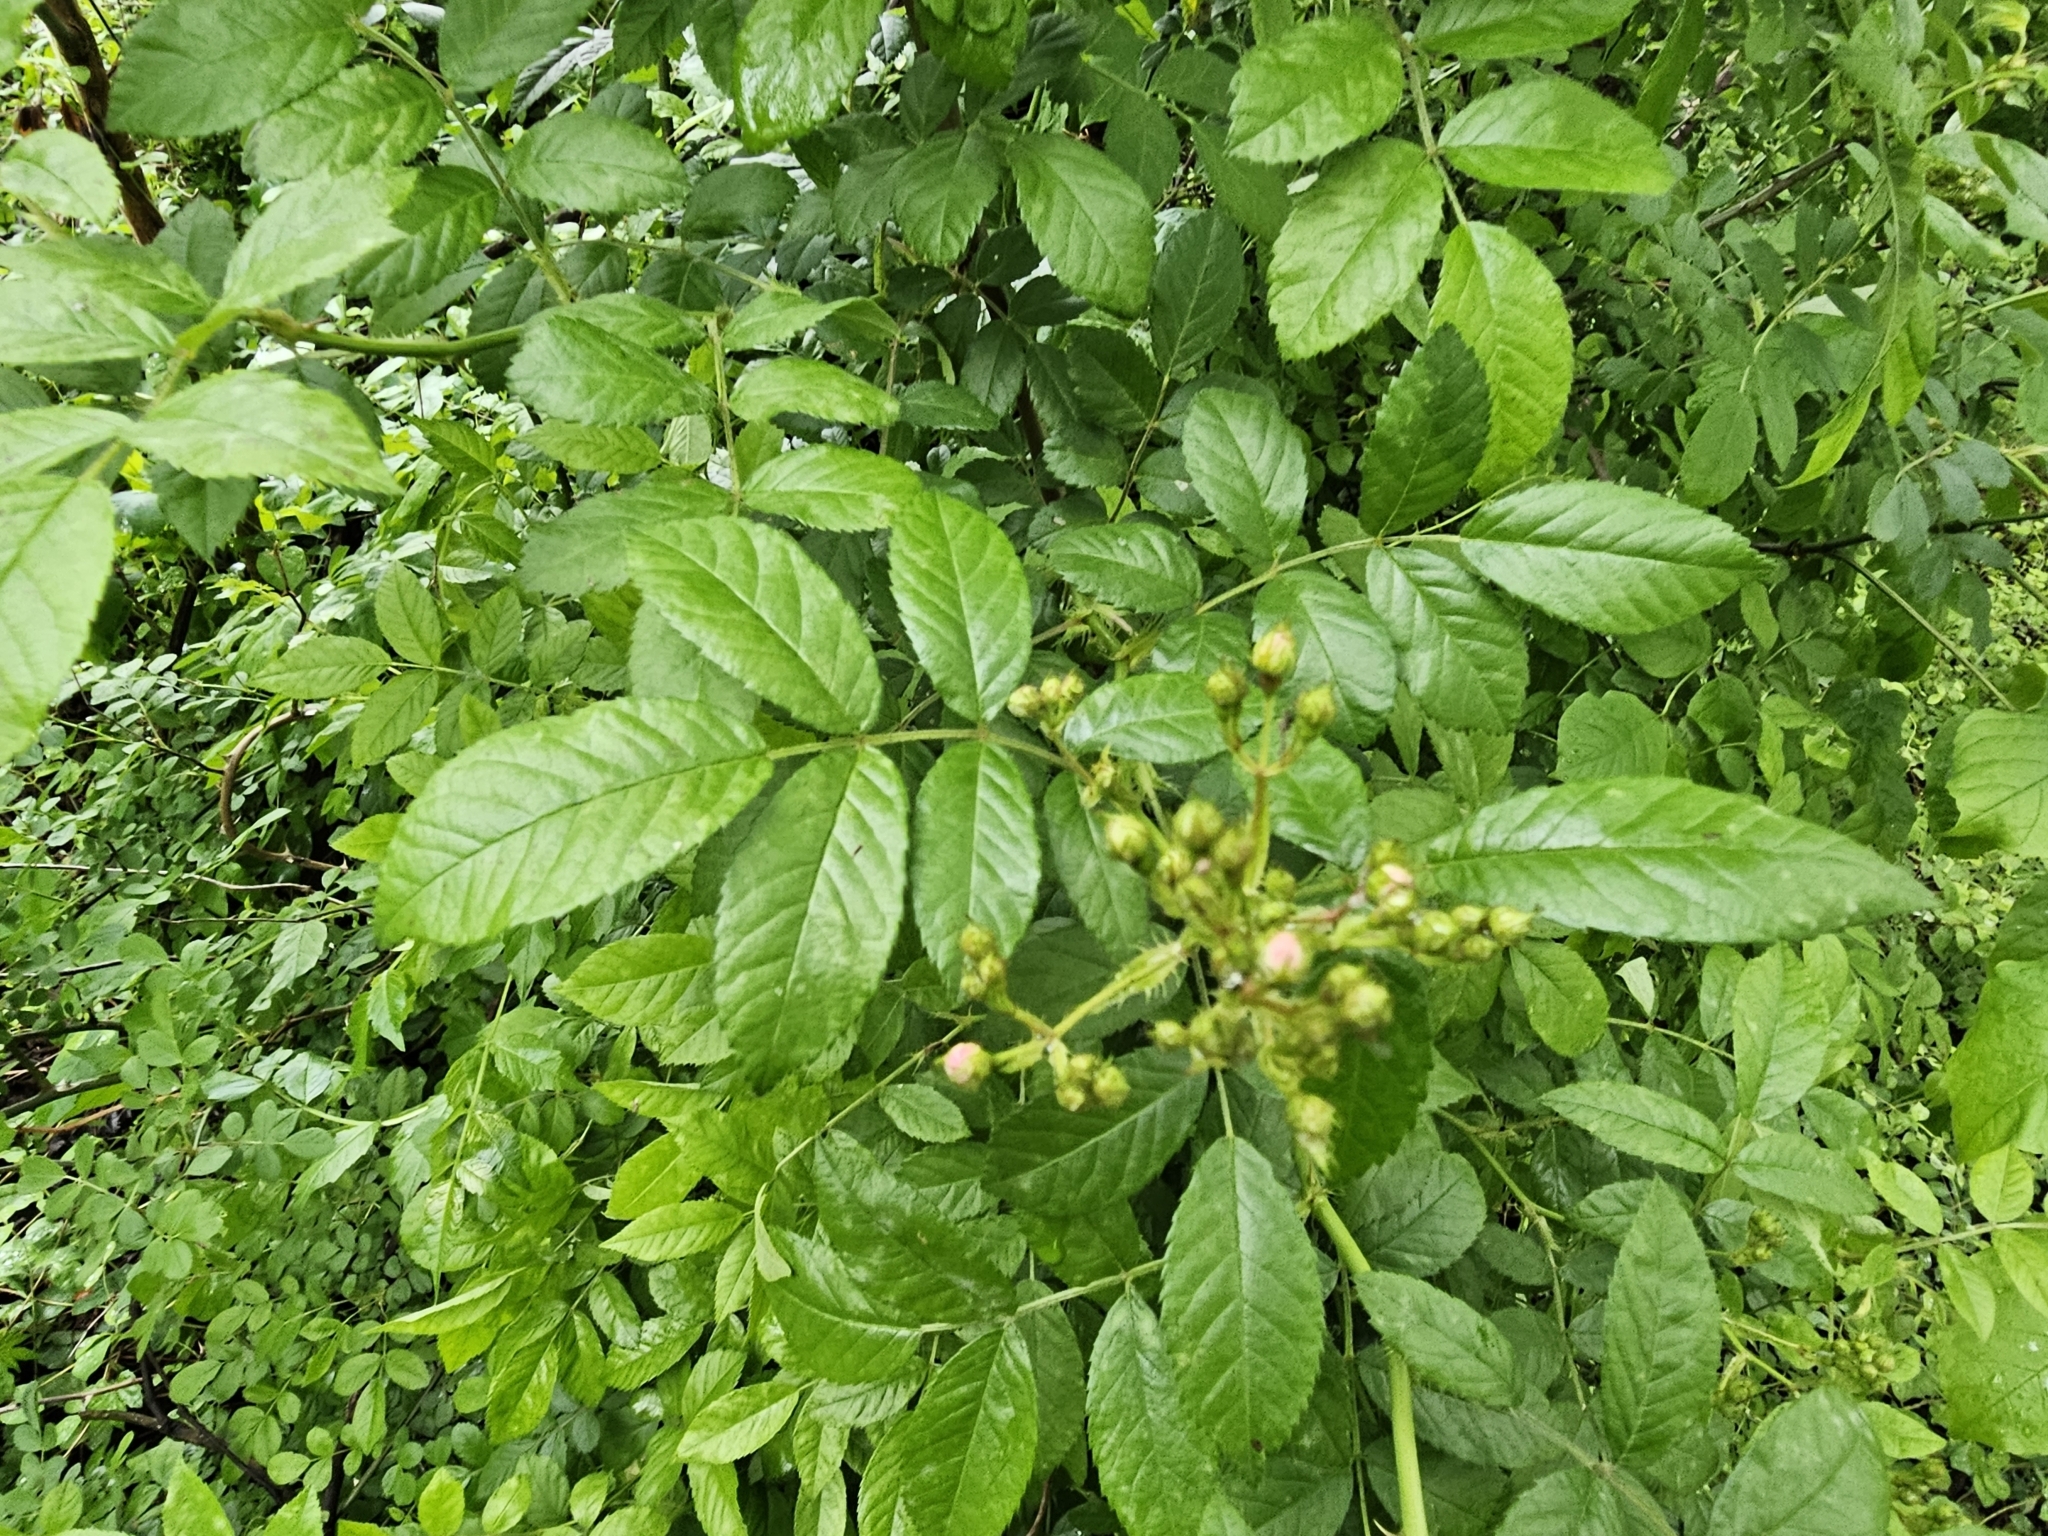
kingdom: Plantae
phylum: Tracheophyta
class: Magnoliopsida
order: Rosales
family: Rosaceae
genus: Rosa
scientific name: Rosa multiflora
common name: Multiflora rose
